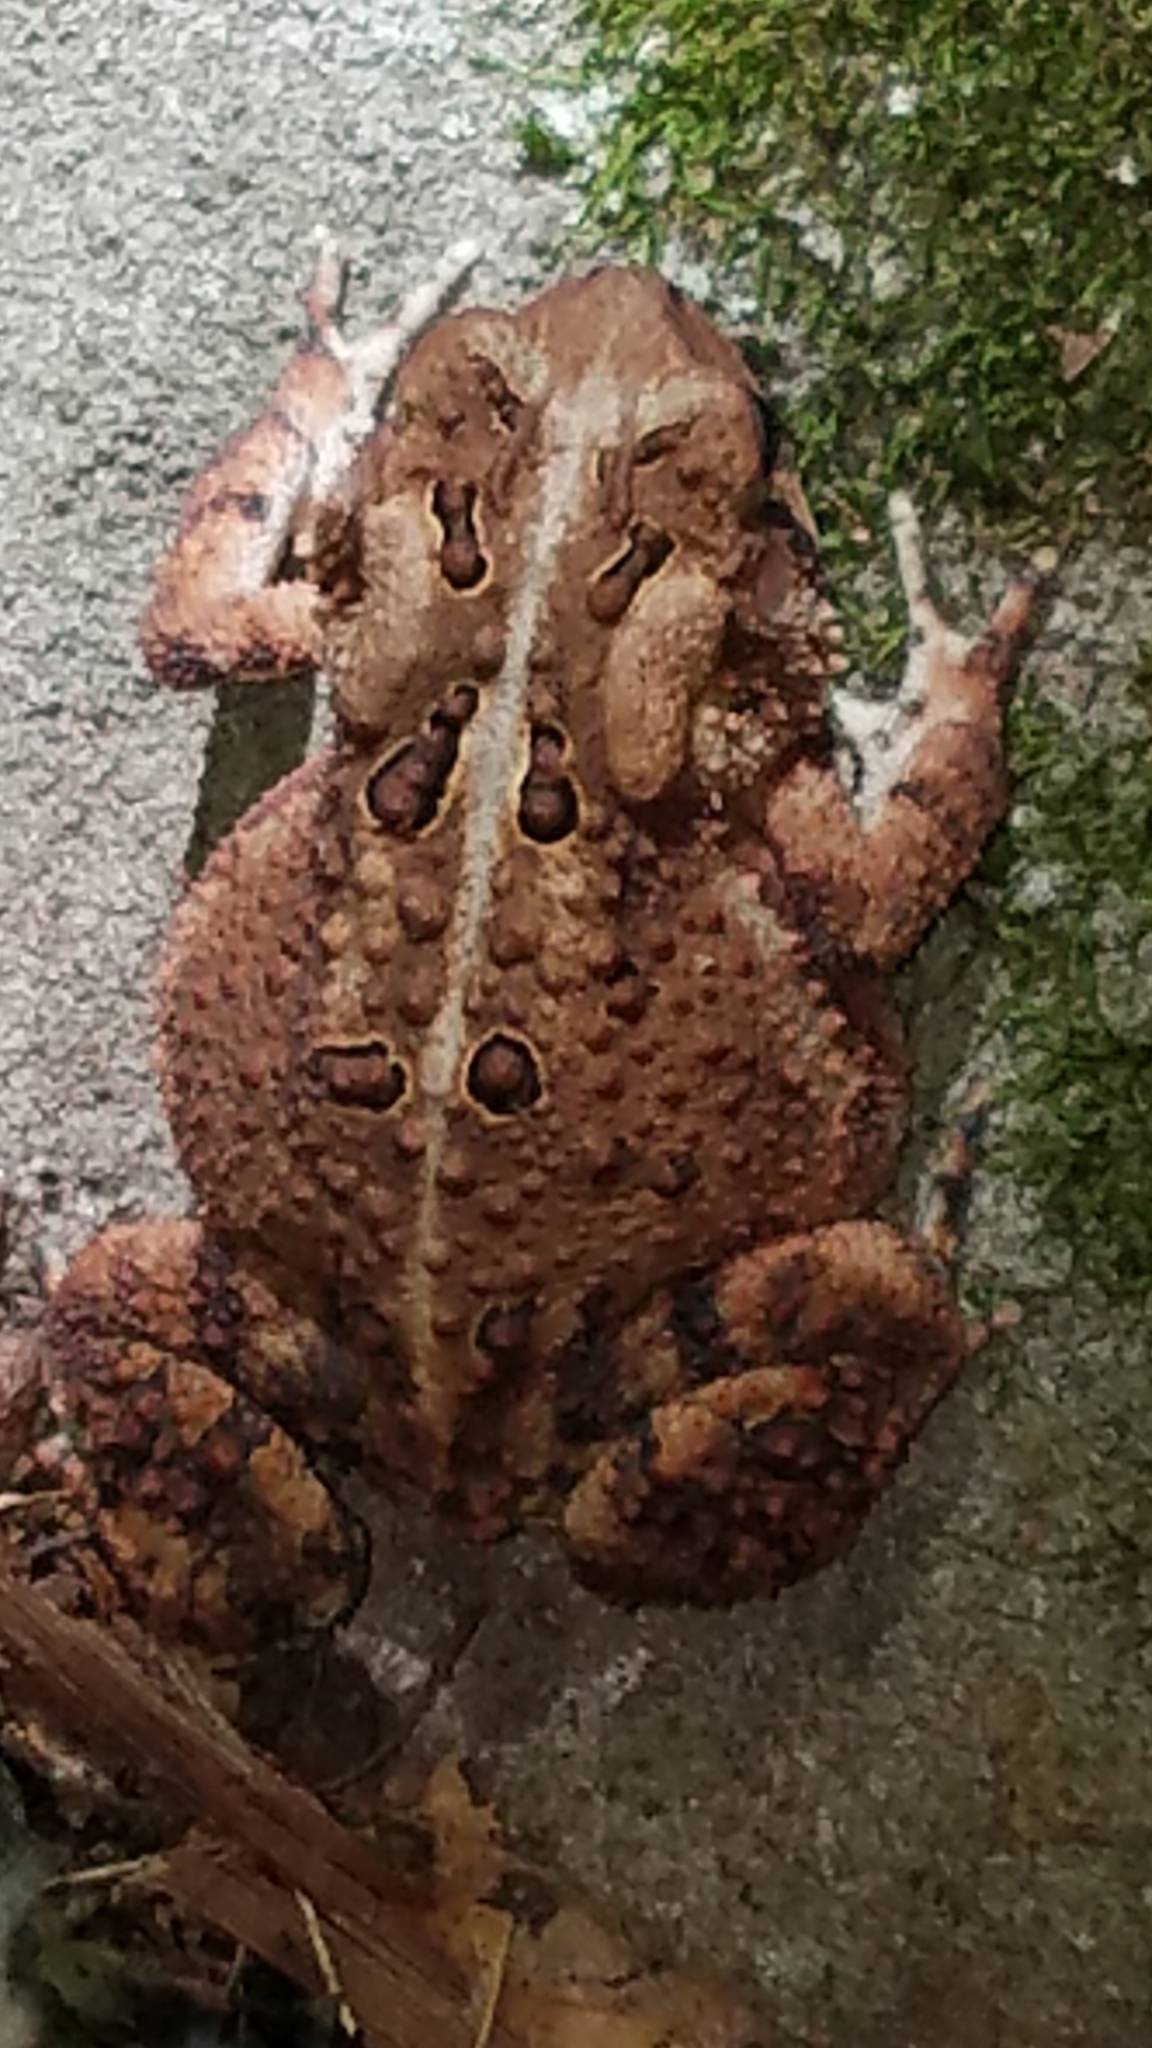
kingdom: Animalia
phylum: Chordata
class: Amphibia
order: Anura
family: Bufonidae
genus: Anaxyrus
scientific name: Anaxyrus americanus
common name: American toad
